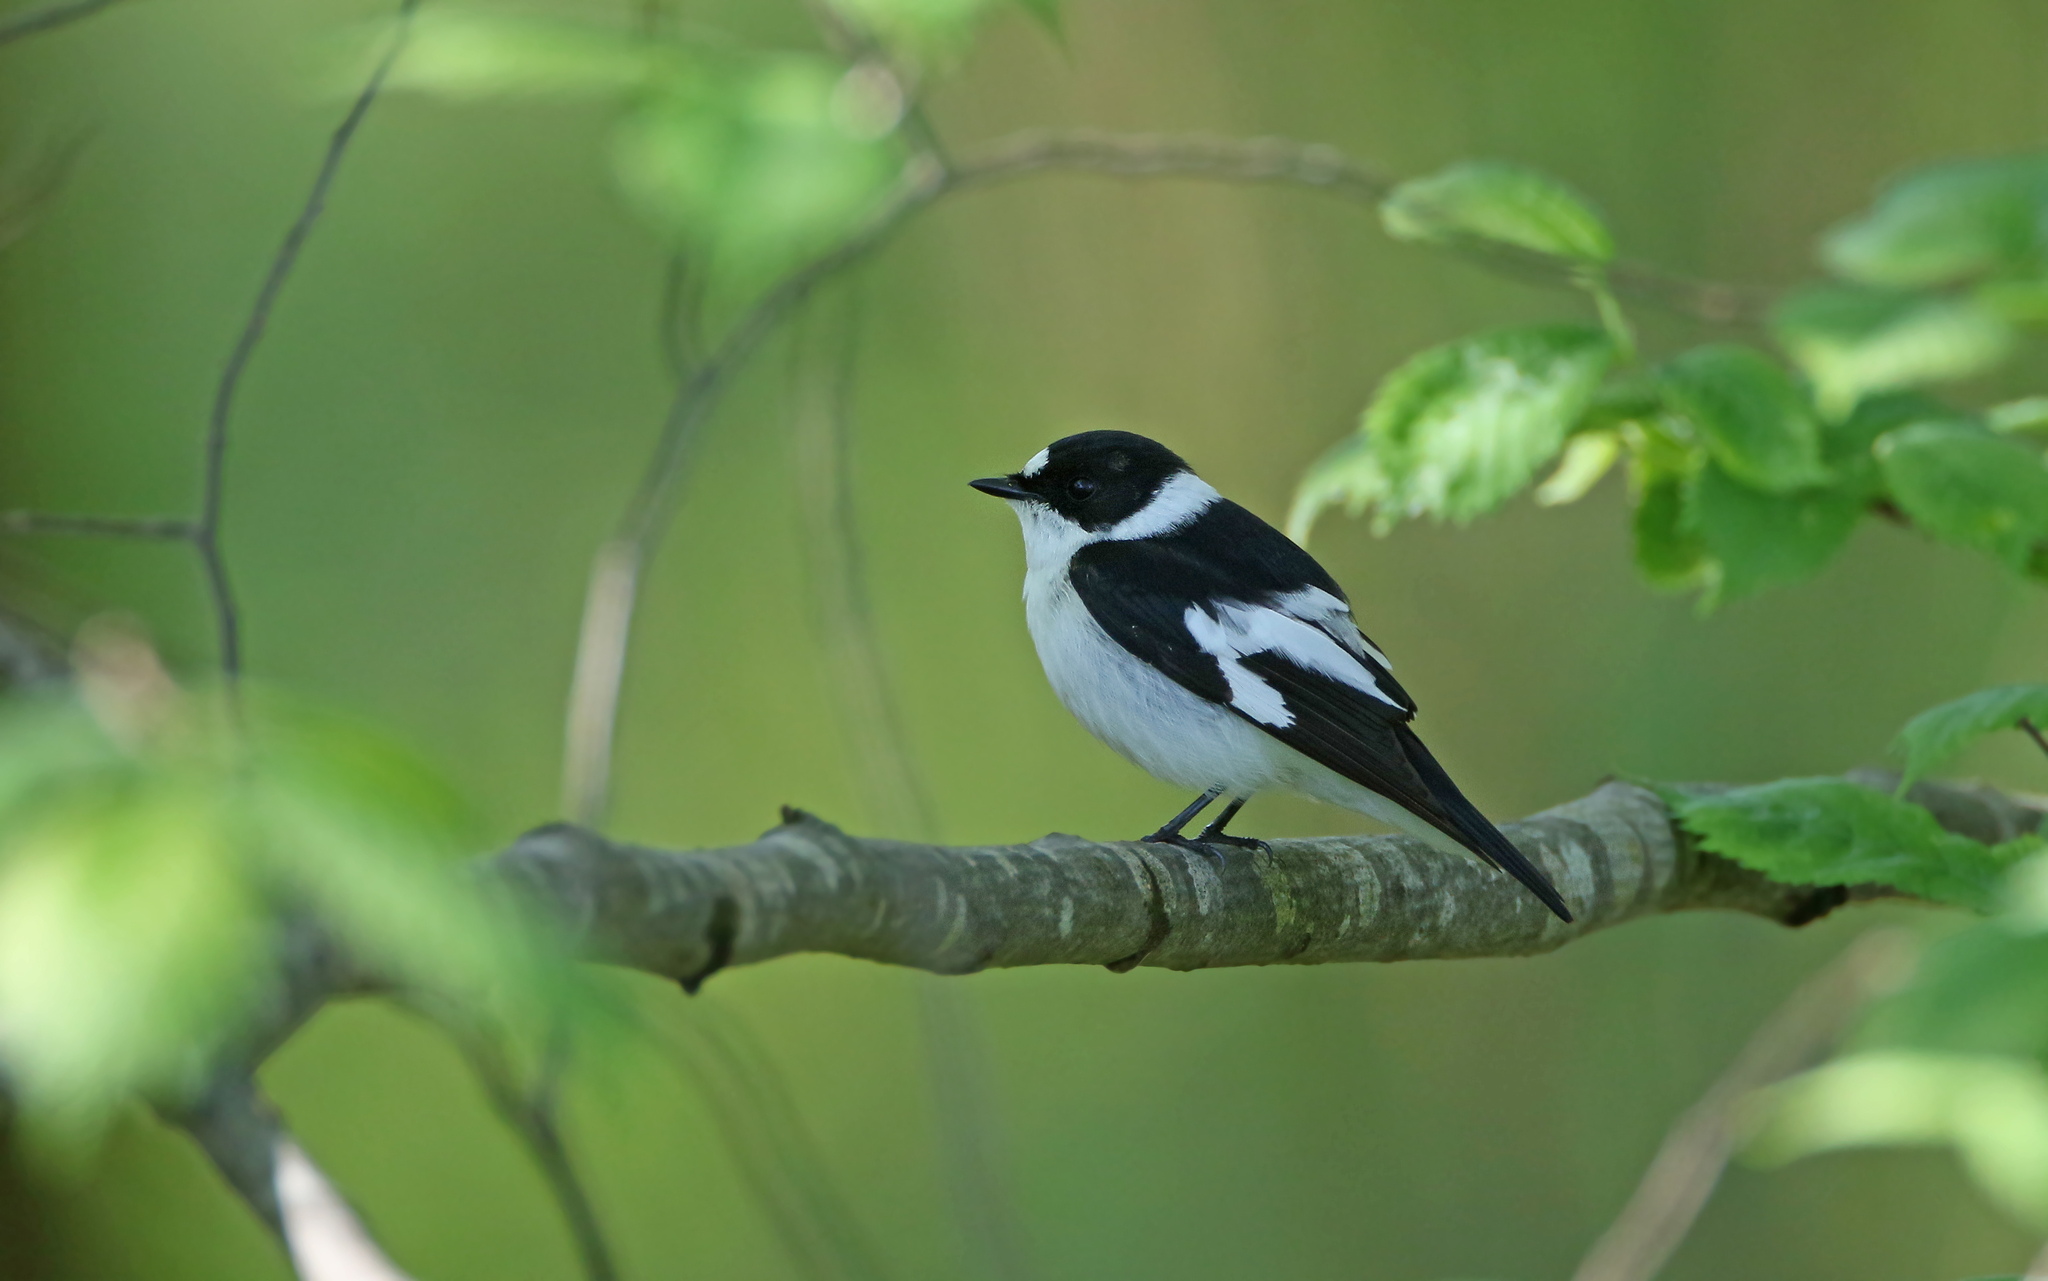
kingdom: Animalia
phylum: Chordata
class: Aves
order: Passeriformes
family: Muscicapidae
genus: Ficedula
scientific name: Ficedula albicollis
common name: Collared flycatcher
